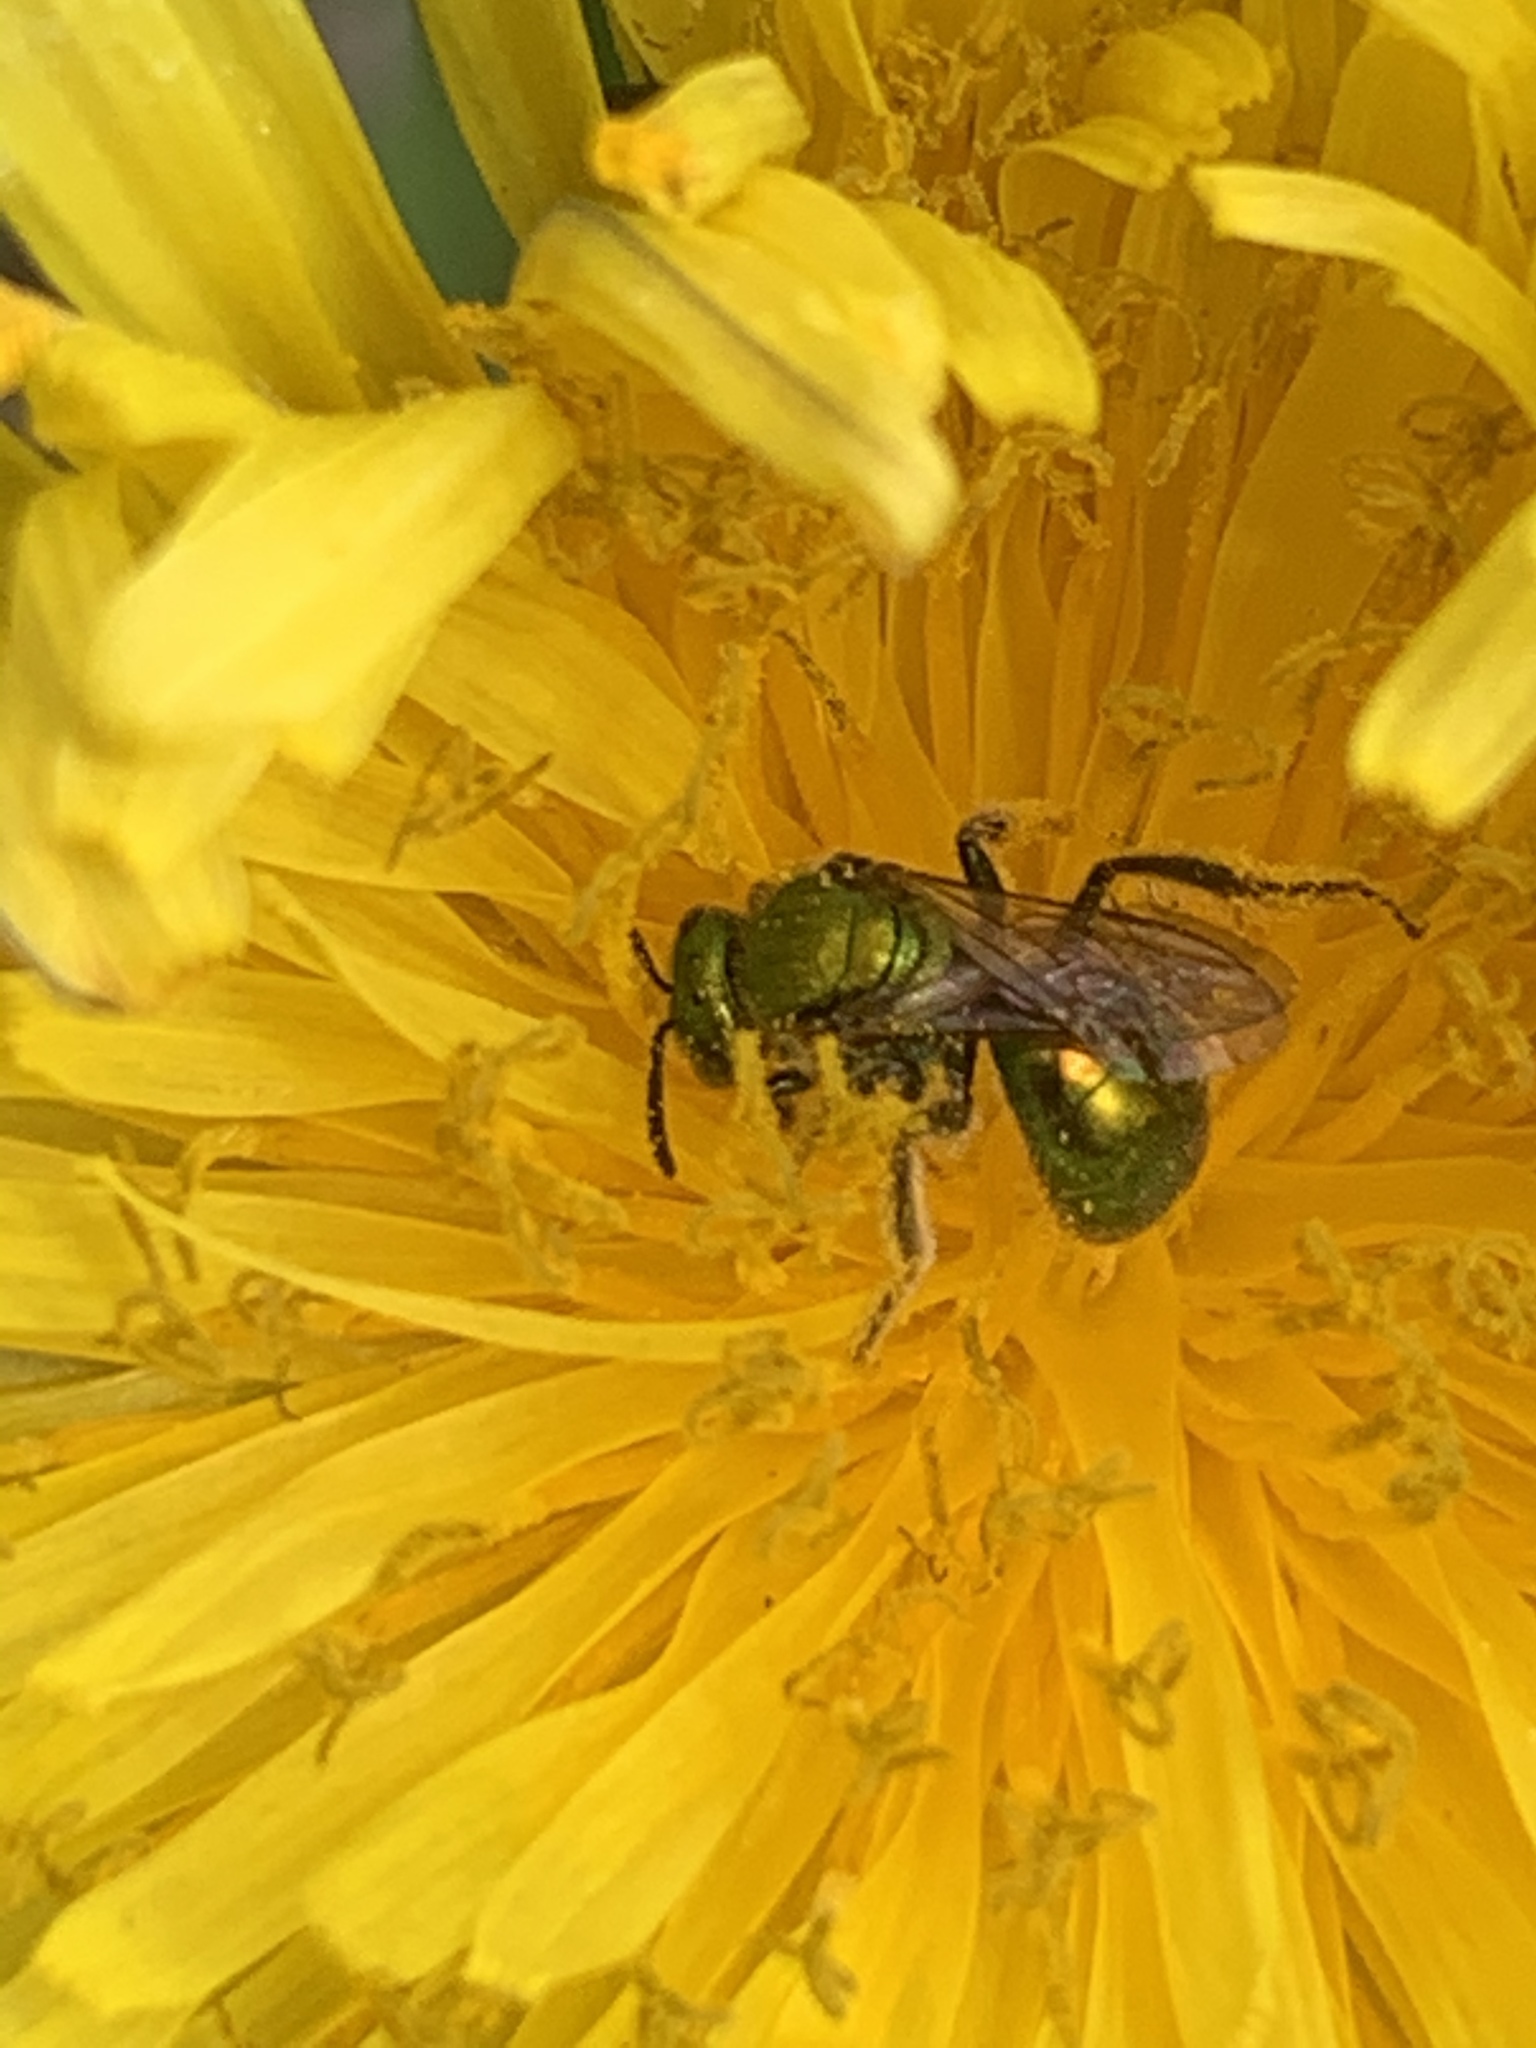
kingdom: Animalia
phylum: Arthropoda
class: Insecta
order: Hymenoptera
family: Halictidae
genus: Augochlora
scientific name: Augochlora pura
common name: Pure green sweat bee
